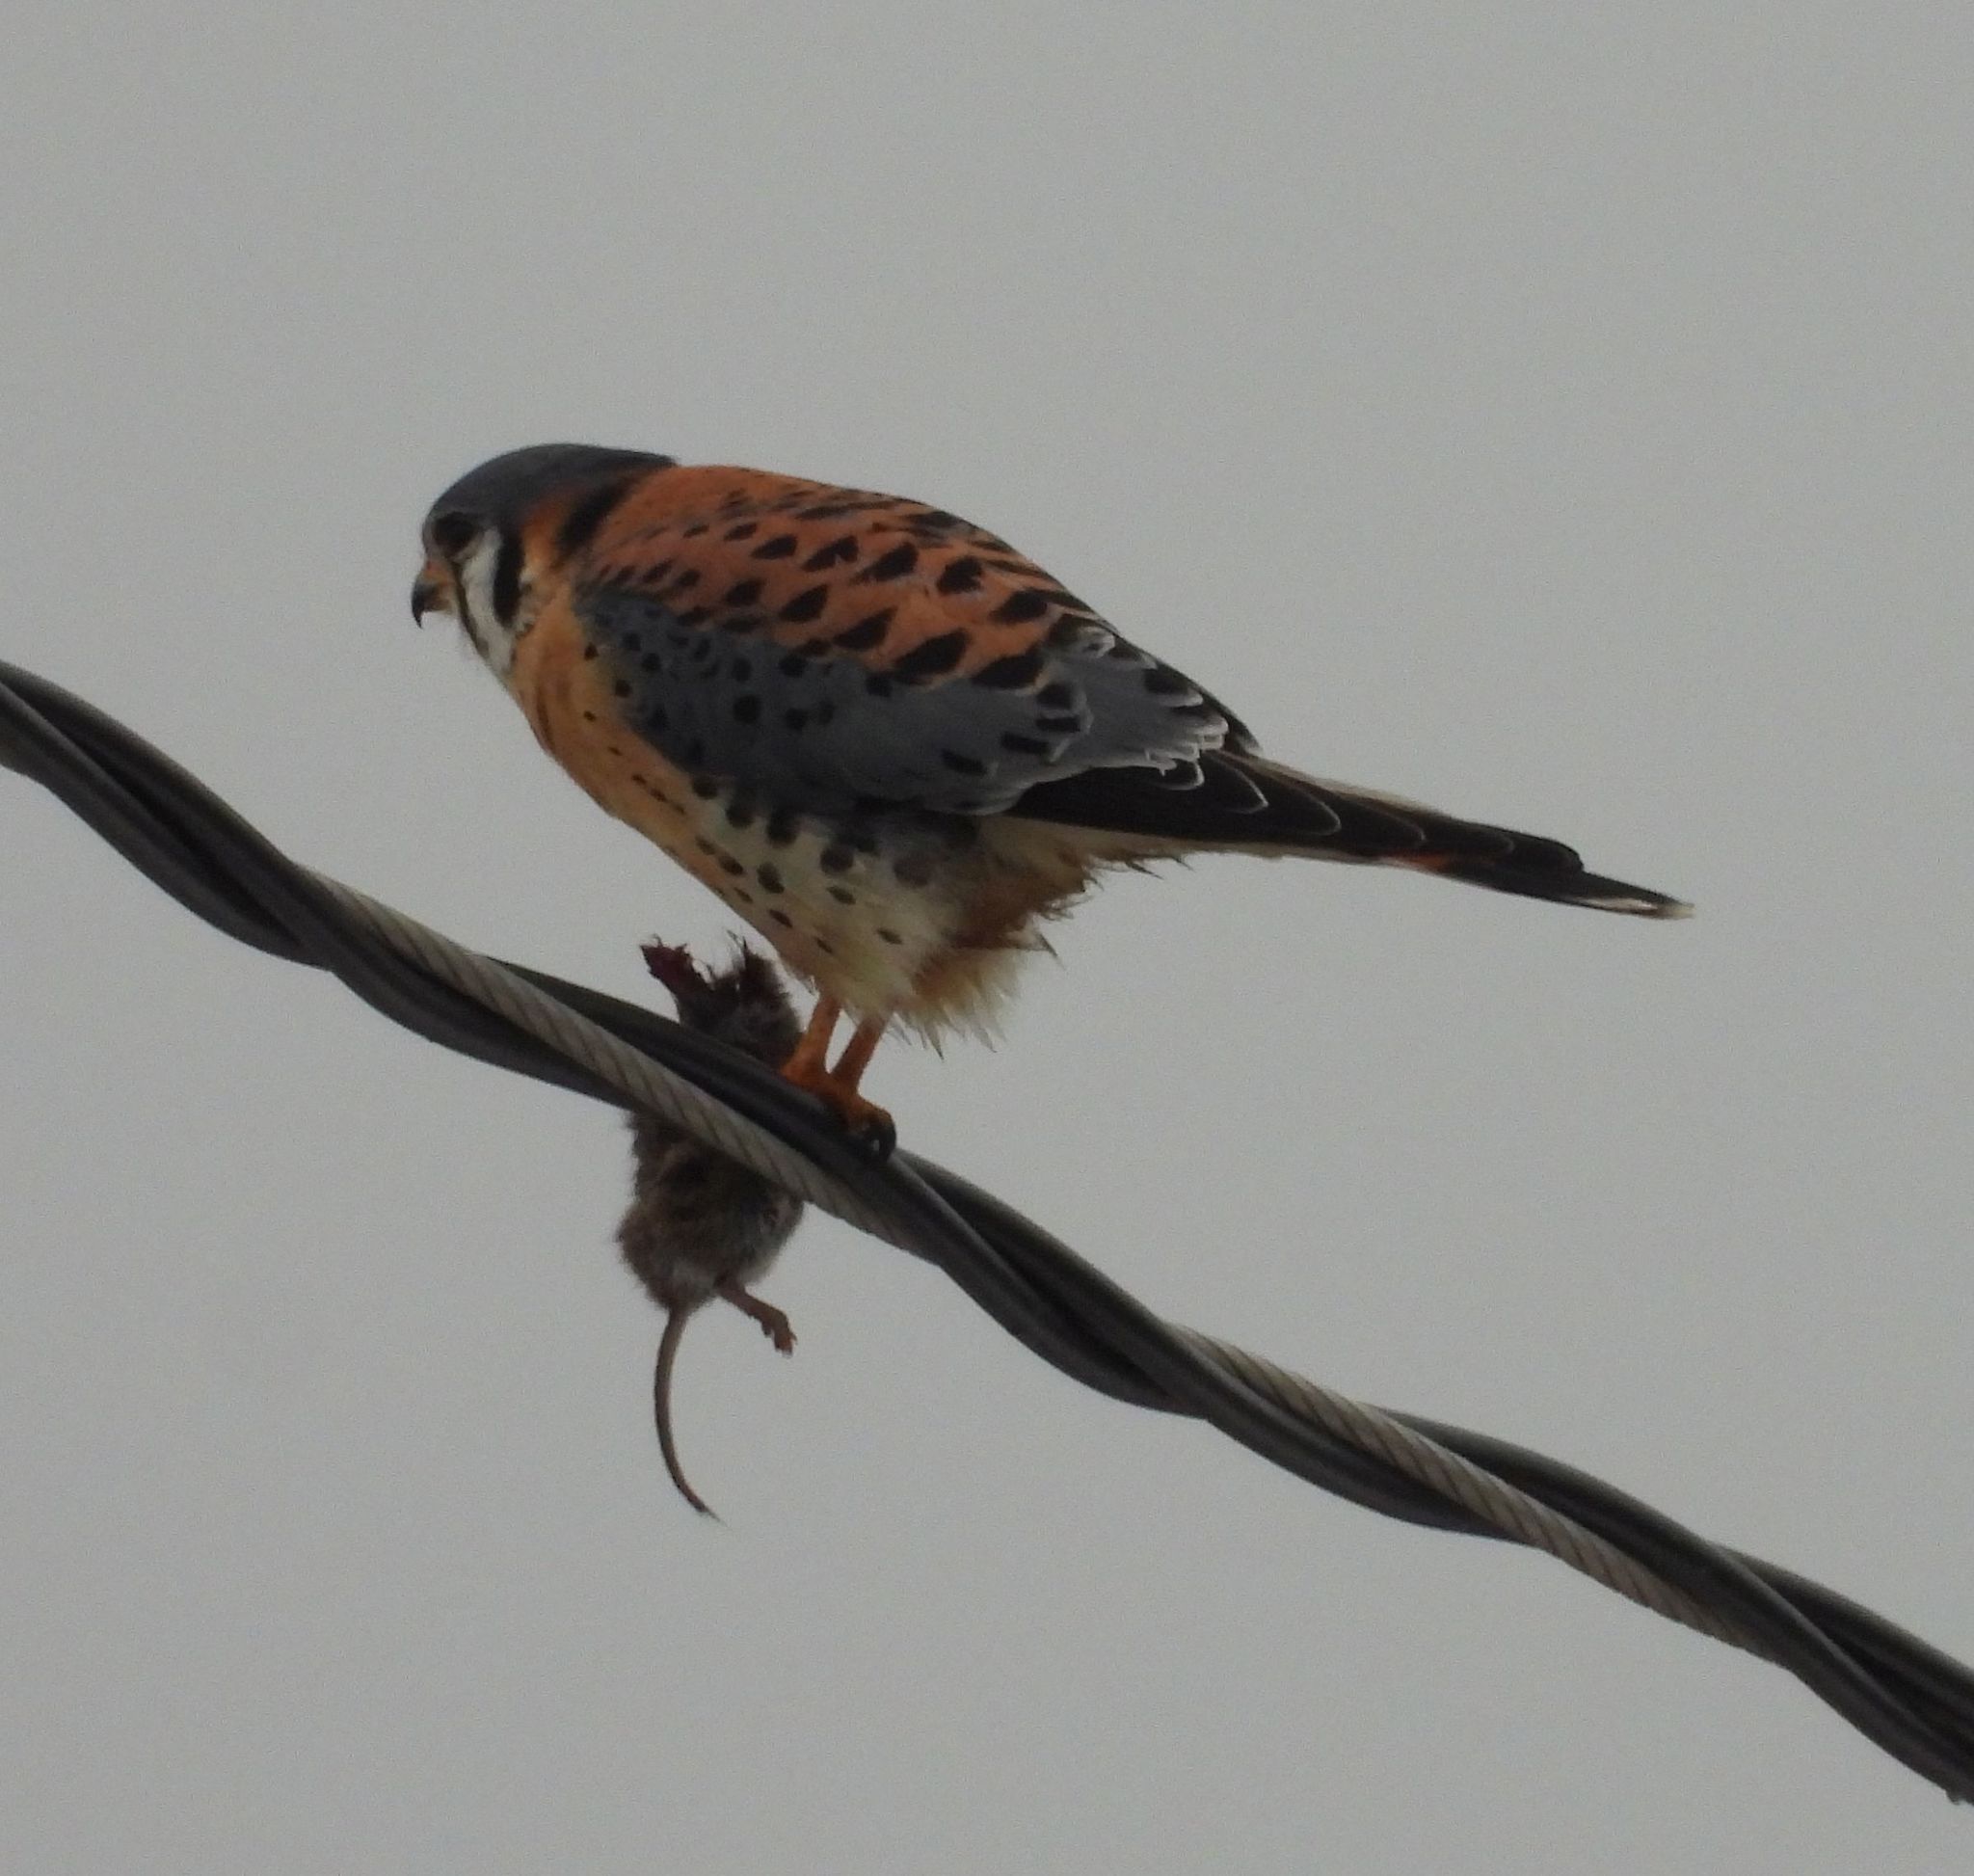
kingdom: Animalia
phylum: Chordata
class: Aves
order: Falconiformes
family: Falconidae
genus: Falco
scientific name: Falco sparverius
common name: American kestrel
